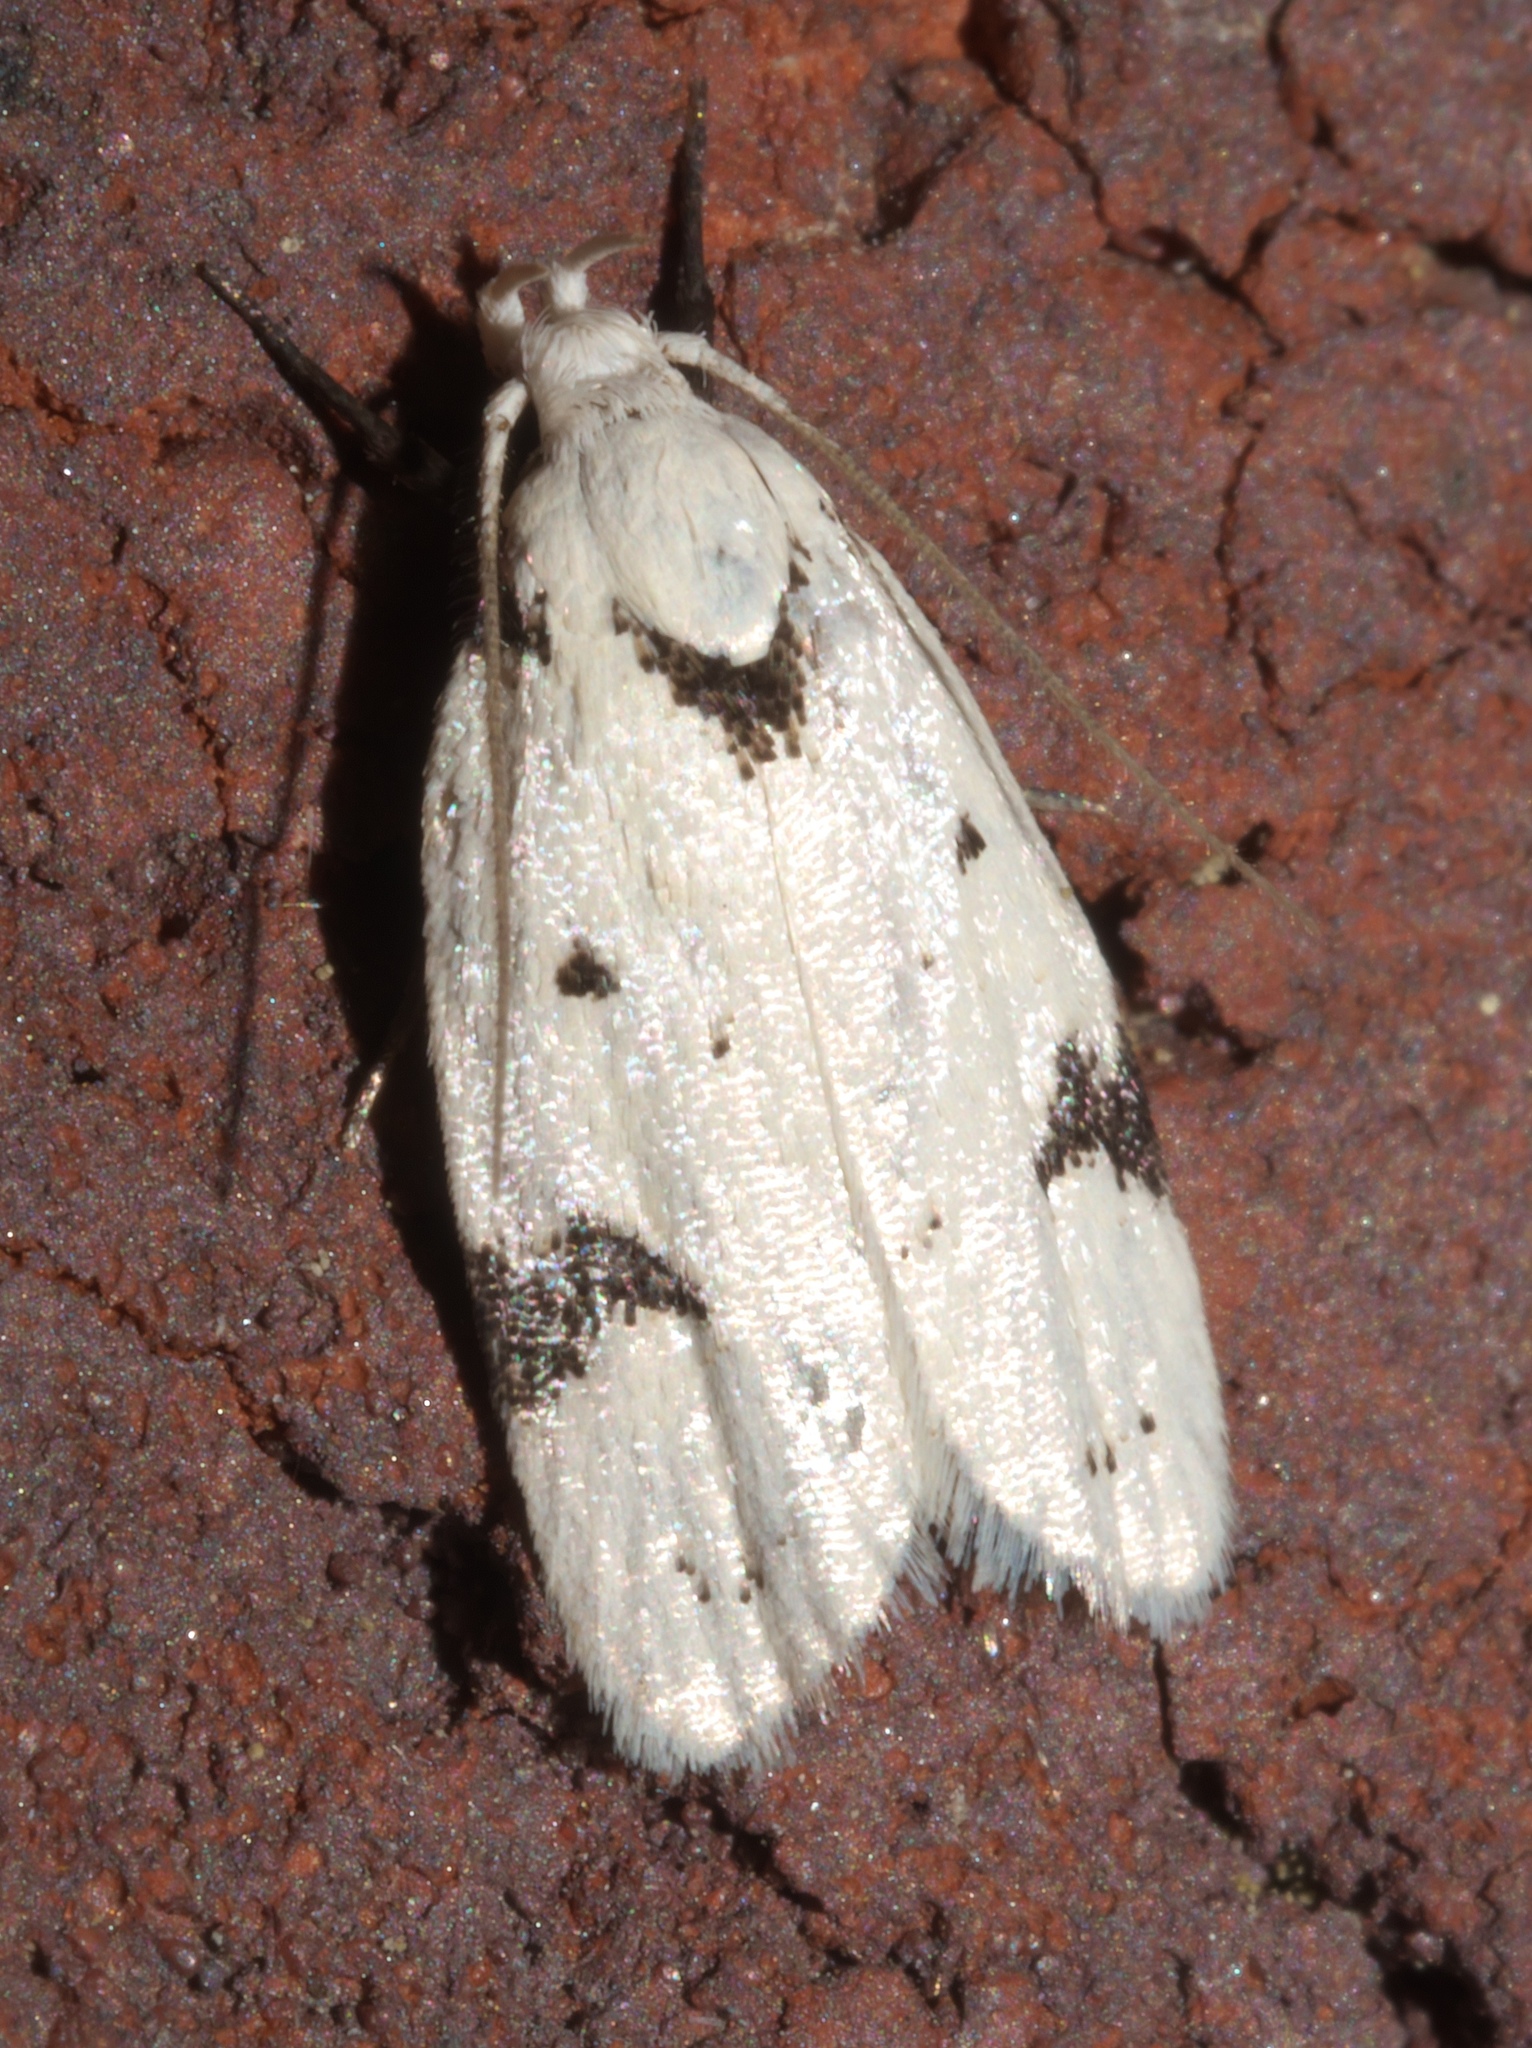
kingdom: Animalia
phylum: Arthropoda
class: Insecta
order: Lepidoptera
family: Oecophoridae
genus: Inga
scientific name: Inga sparsiciliella
